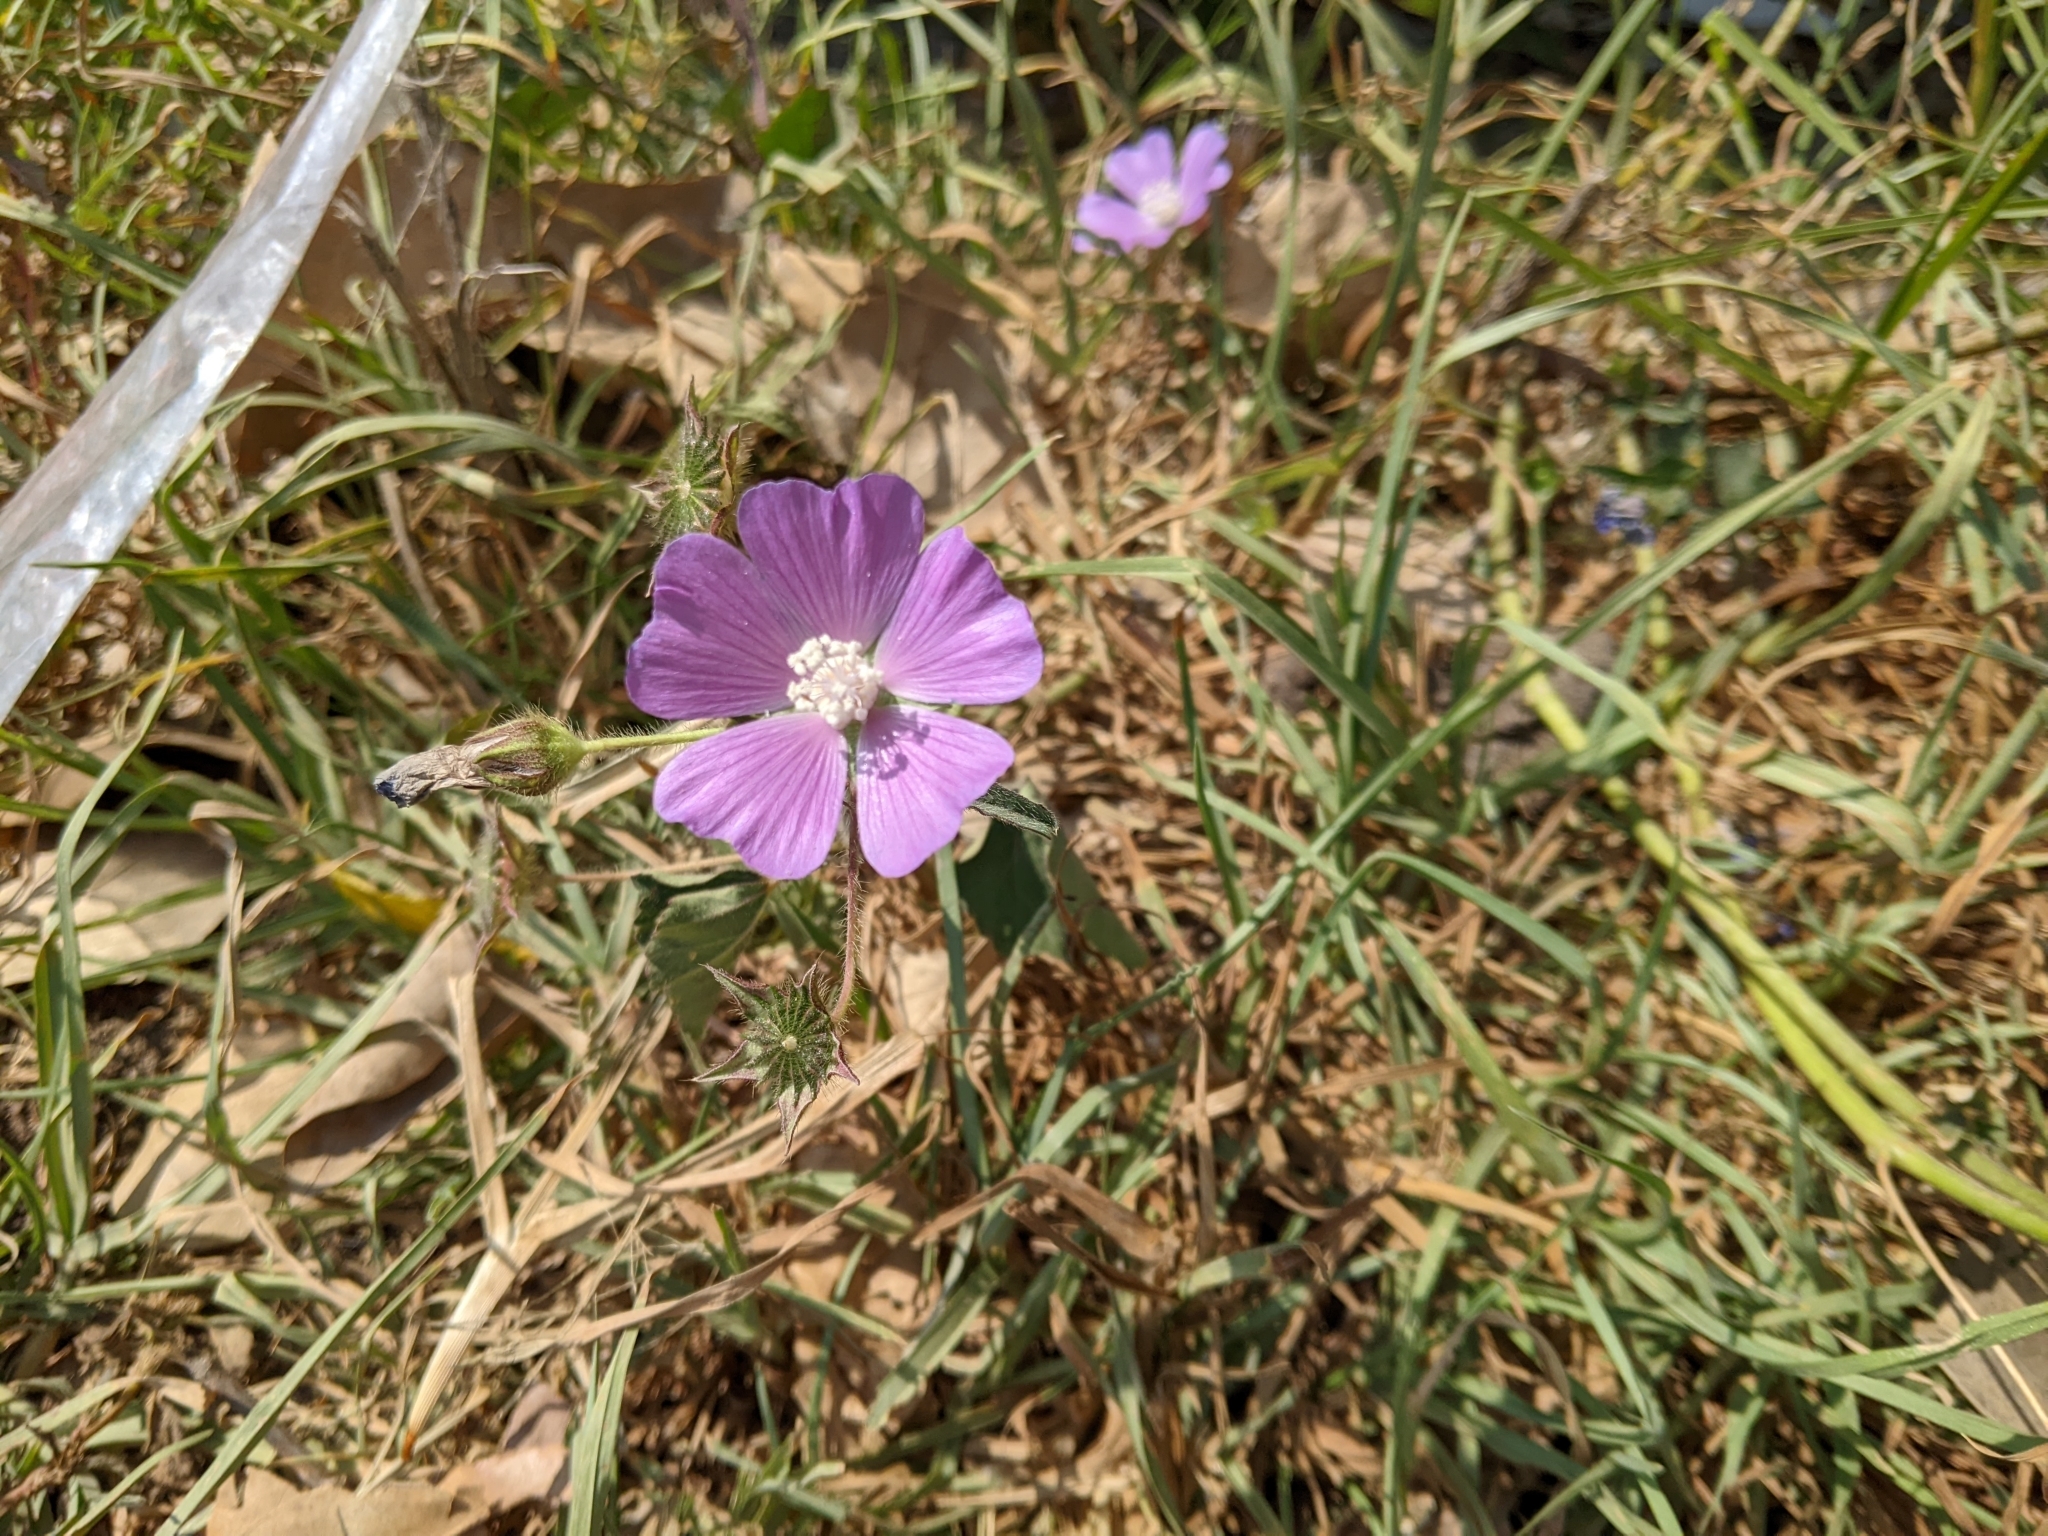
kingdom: Plantae
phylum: Tracheophyta
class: Magnoliopsida
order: Malvales
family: Malvaceae
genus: Anoda
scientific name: Anoda cristata
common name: Spurred anoda
